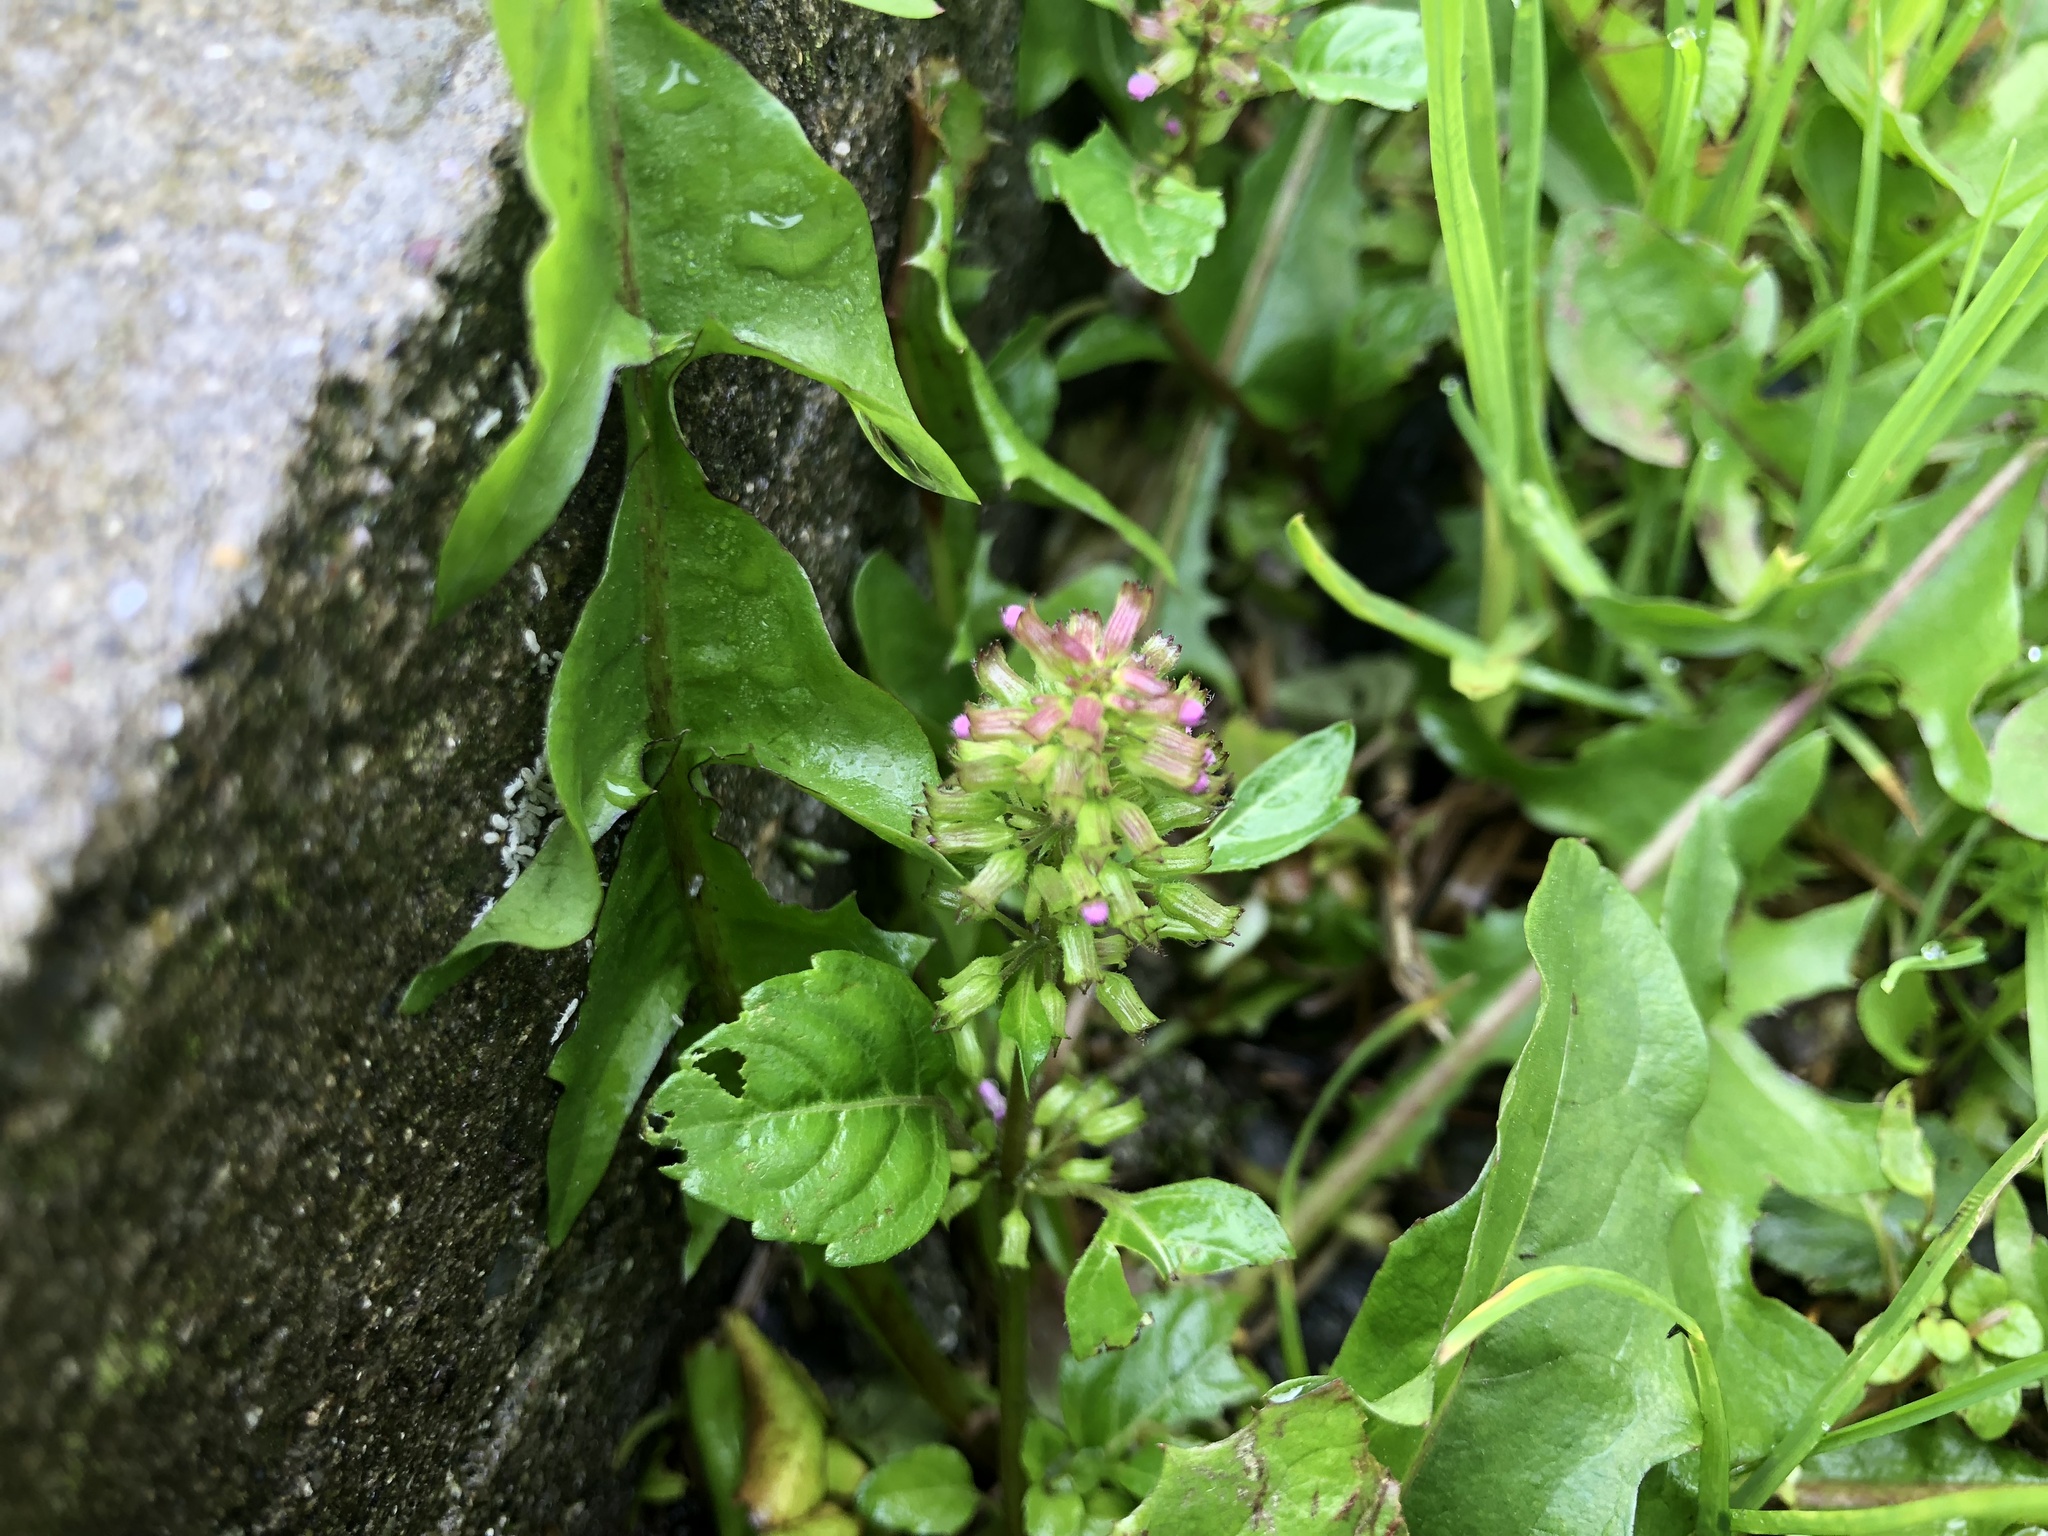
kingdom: Plantae
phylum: Tracheophyta
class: Magnoliopsida
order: Lamiales
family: Lamiaceae
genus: Clinopodium
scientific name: Clinopodium gracile
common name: Slender wild basil
